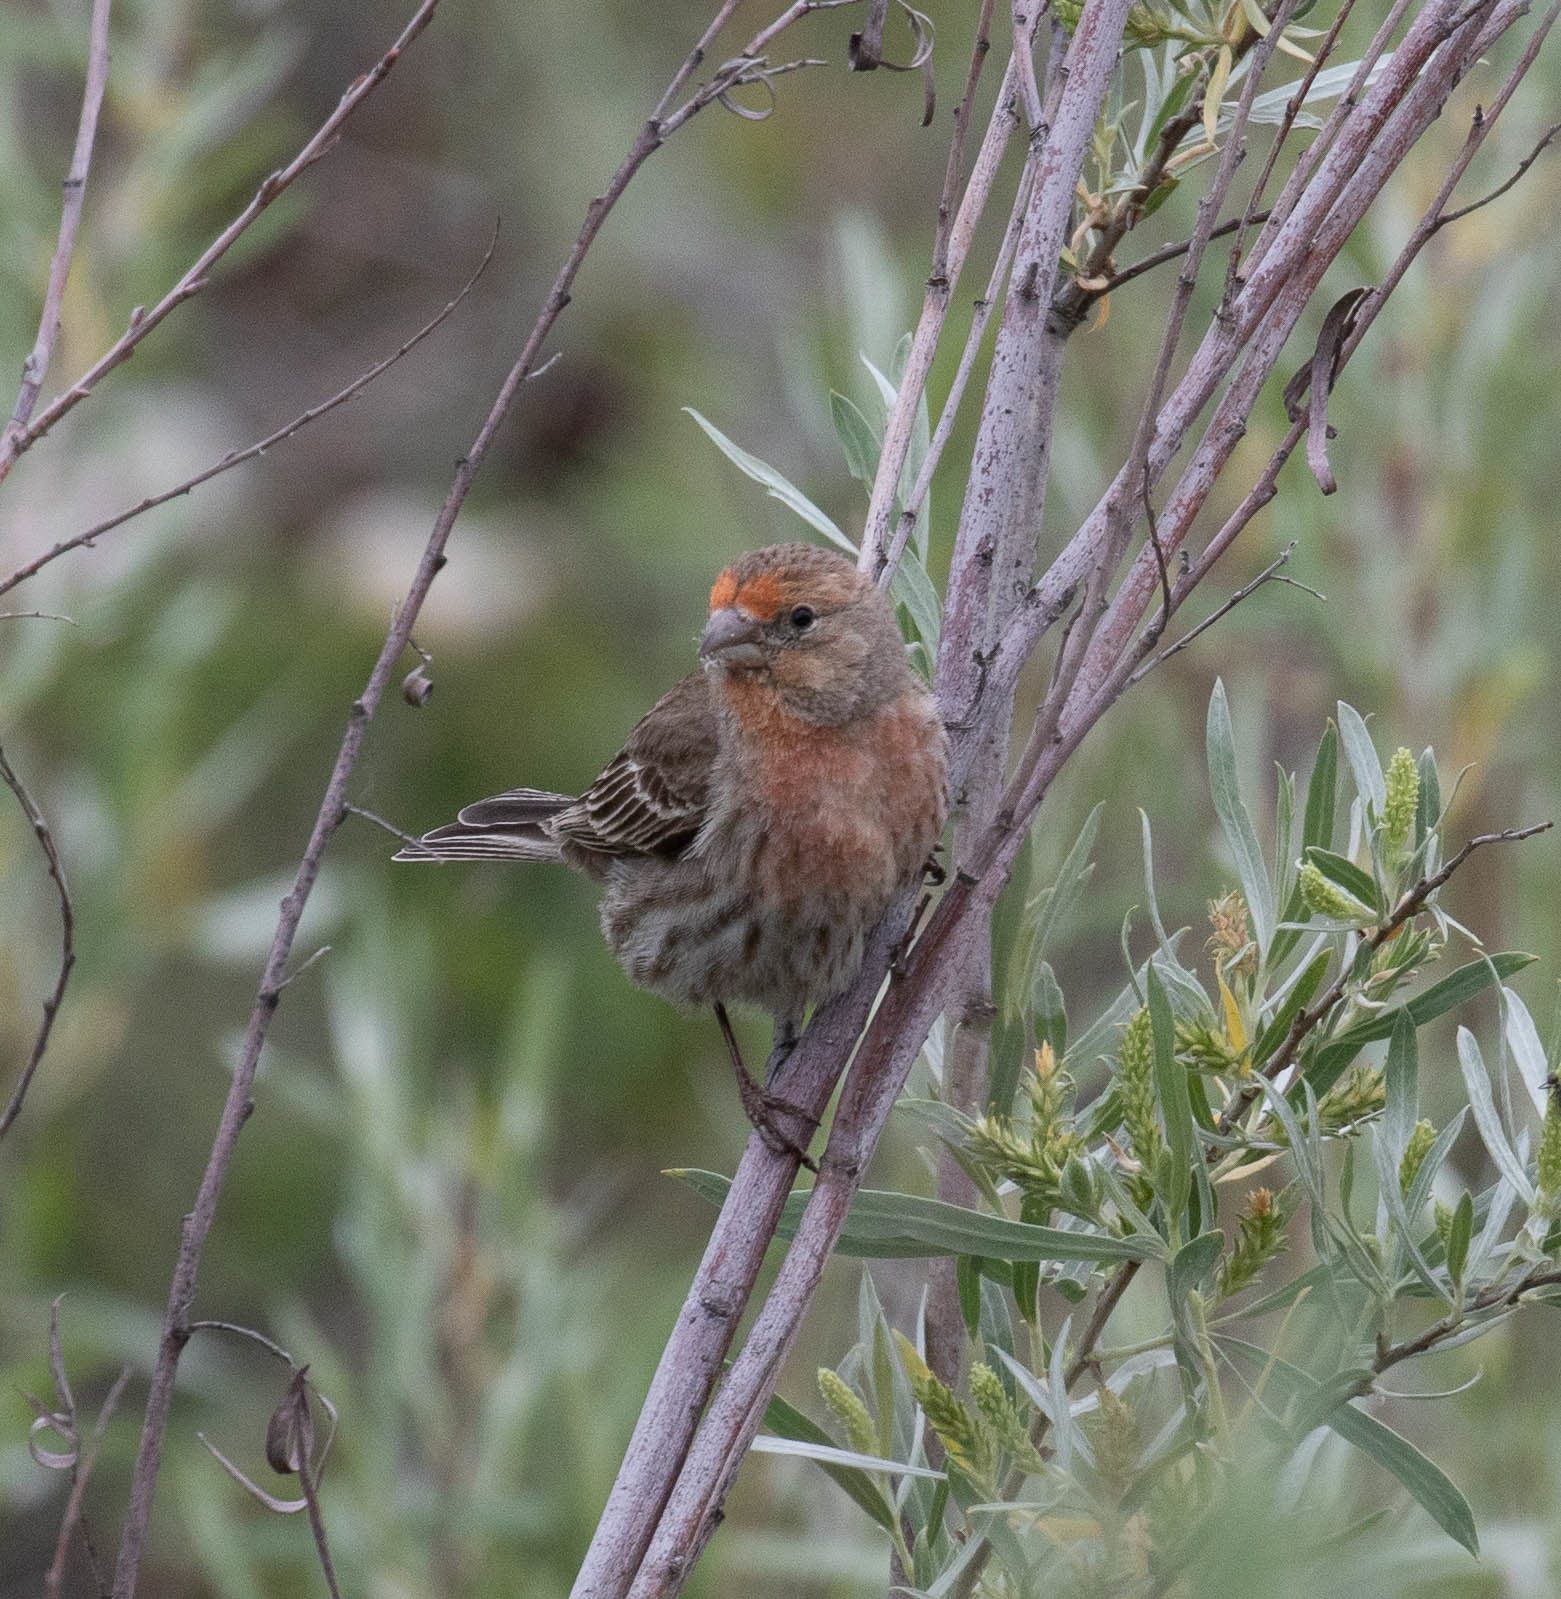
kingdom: Animalia
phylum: Chordata
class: Aves
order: Passeriformes
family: Fringillidae
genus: Haemorhous
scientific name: Haemorhous mexicanus
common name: House finch
